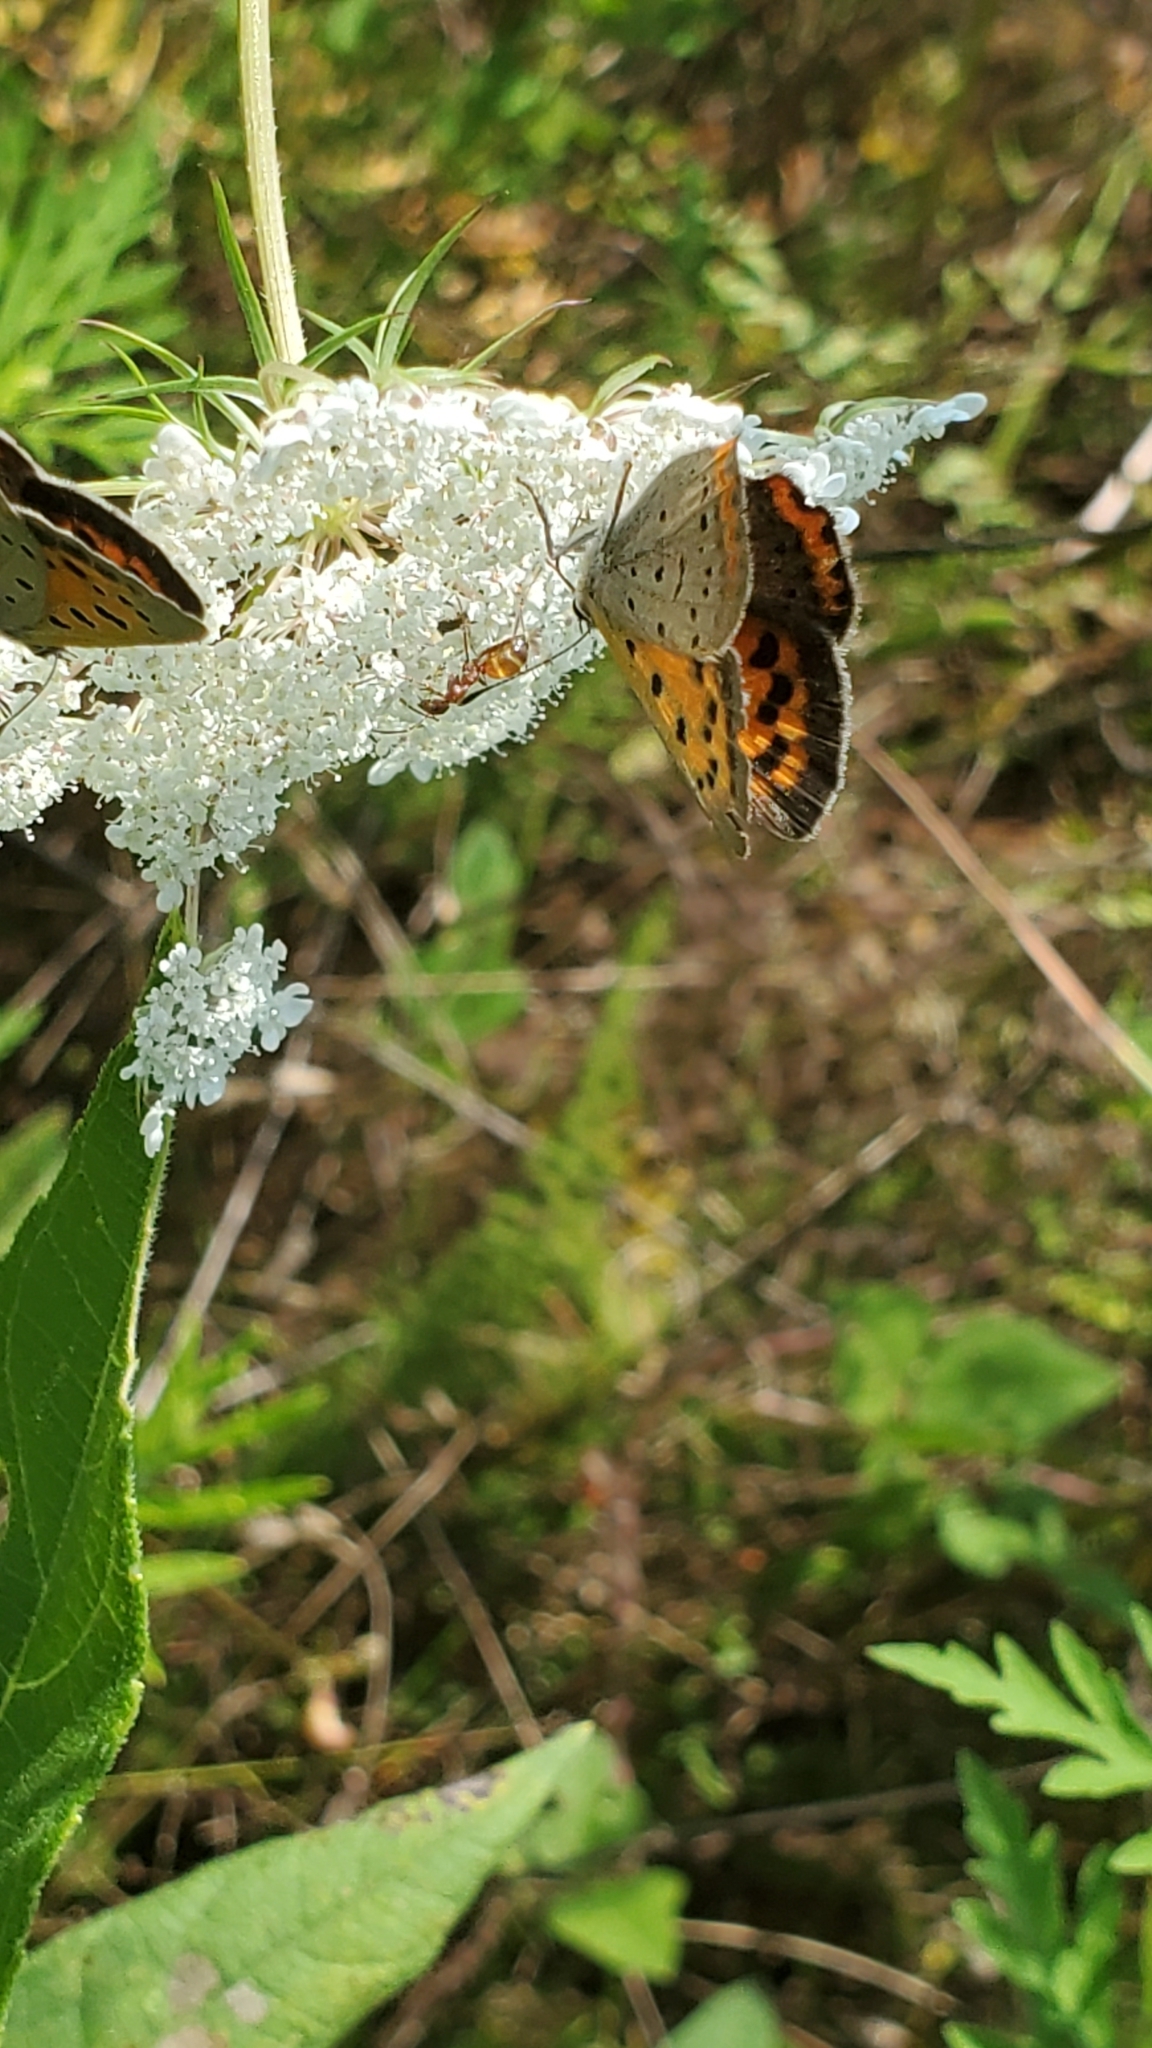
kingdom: Animalia
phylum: Arthropoda
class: Insecta
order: Lepidoptera
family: Lycaenidae
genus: Lycaena
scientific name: Lycaena hypophlaeas
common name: American copper
